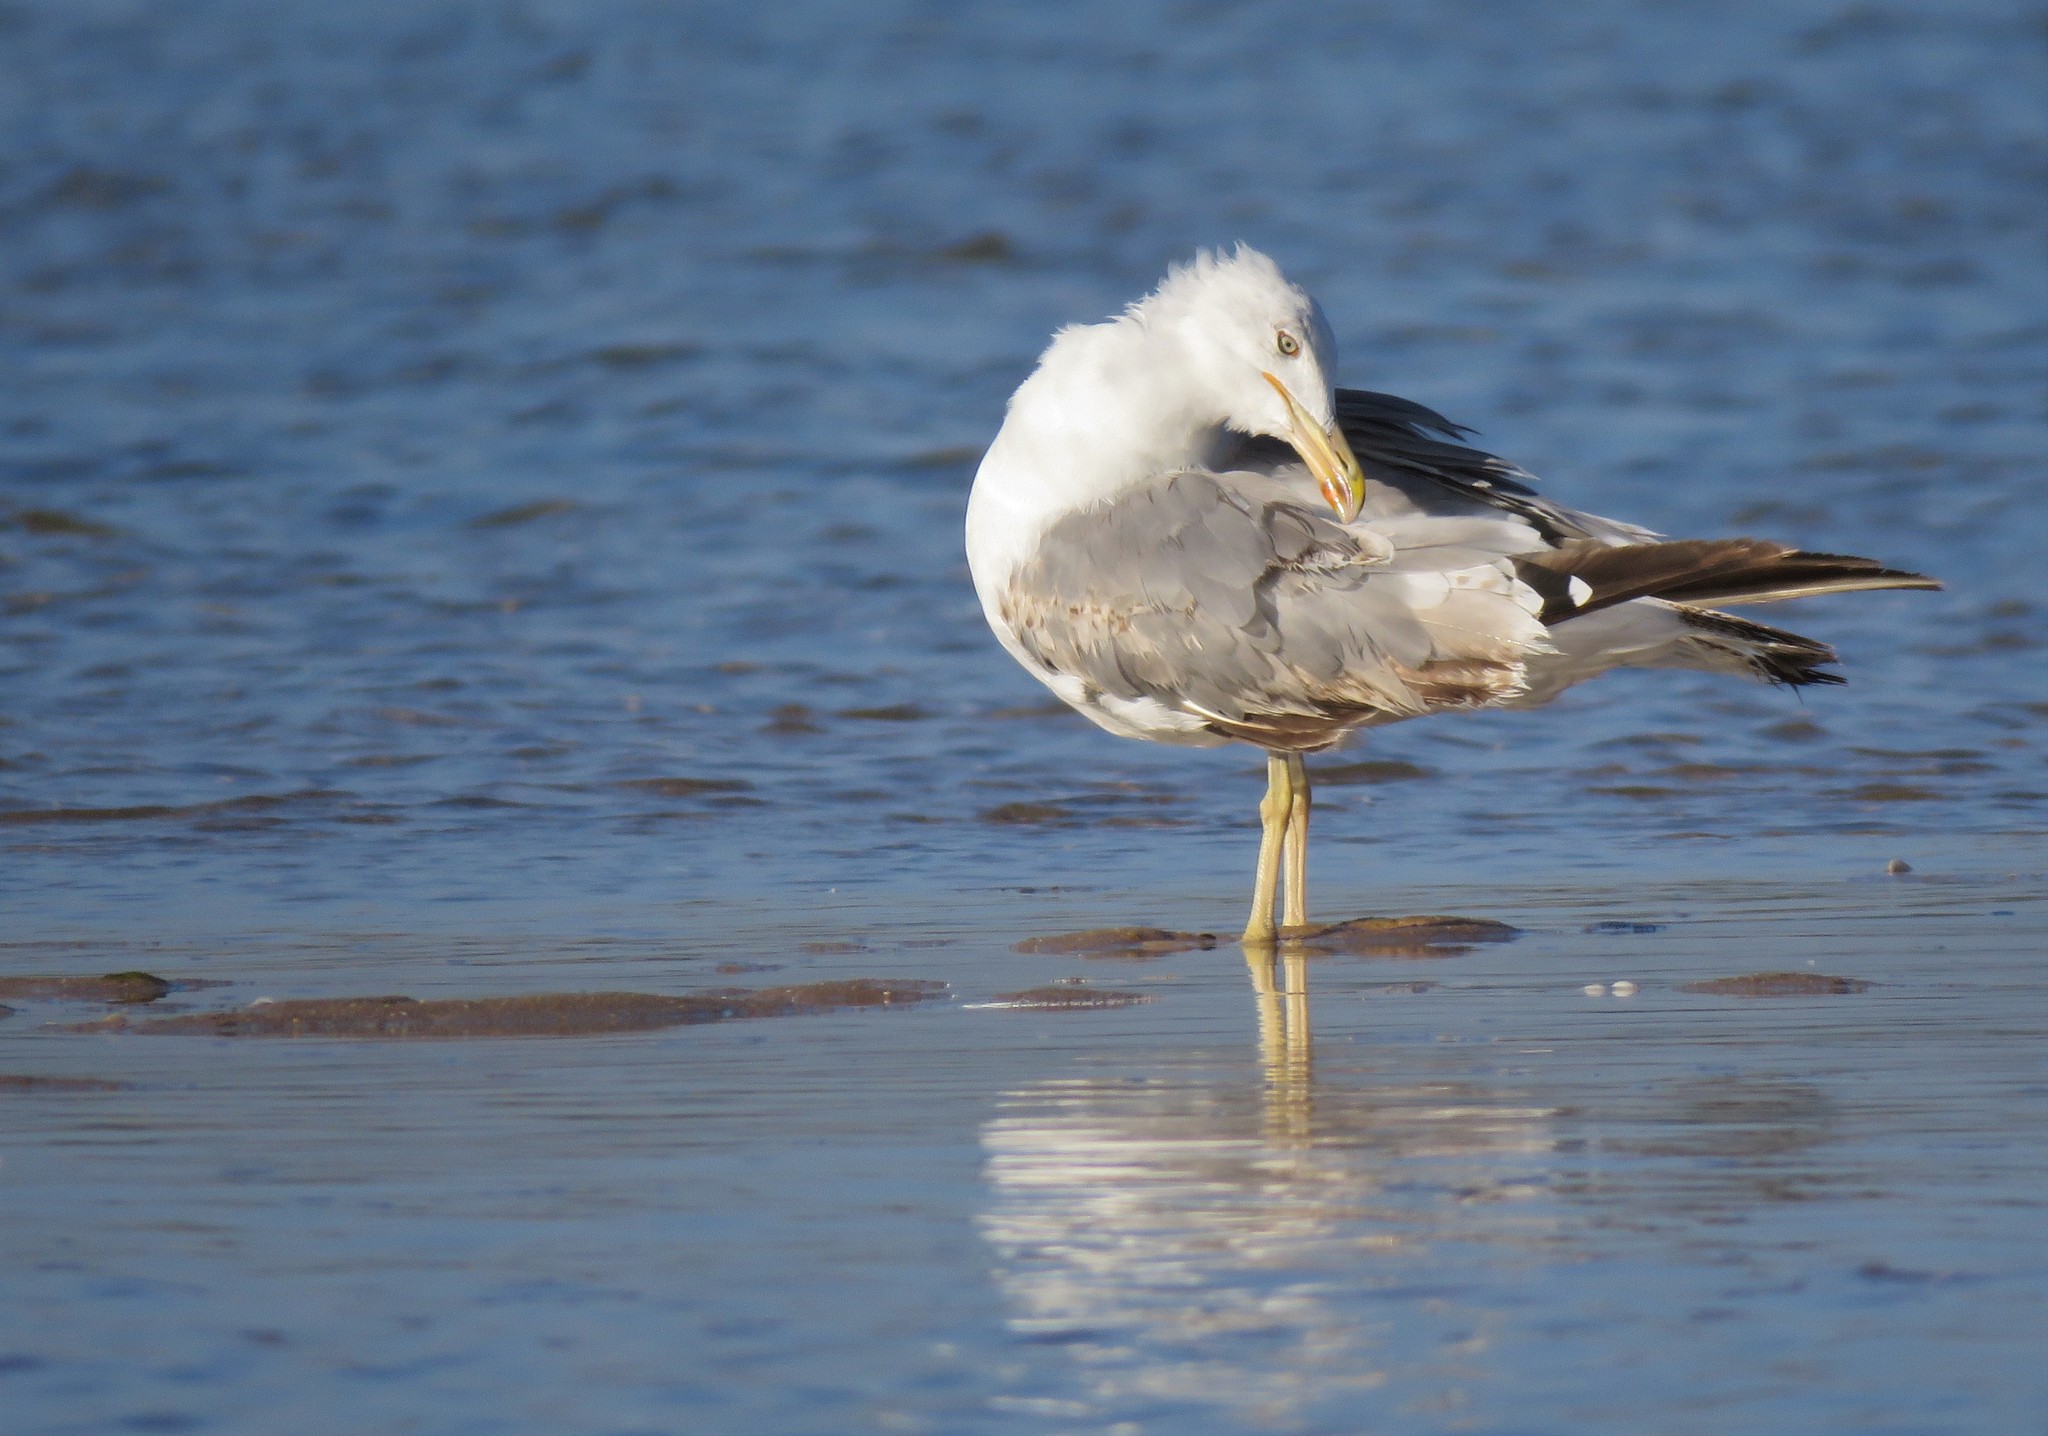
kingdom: Animalia
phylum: Chordata
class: Aves
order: Charadriiformes
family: Laridae
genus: Larus
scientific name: Larus michahellis
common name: Yellow-legged gull
